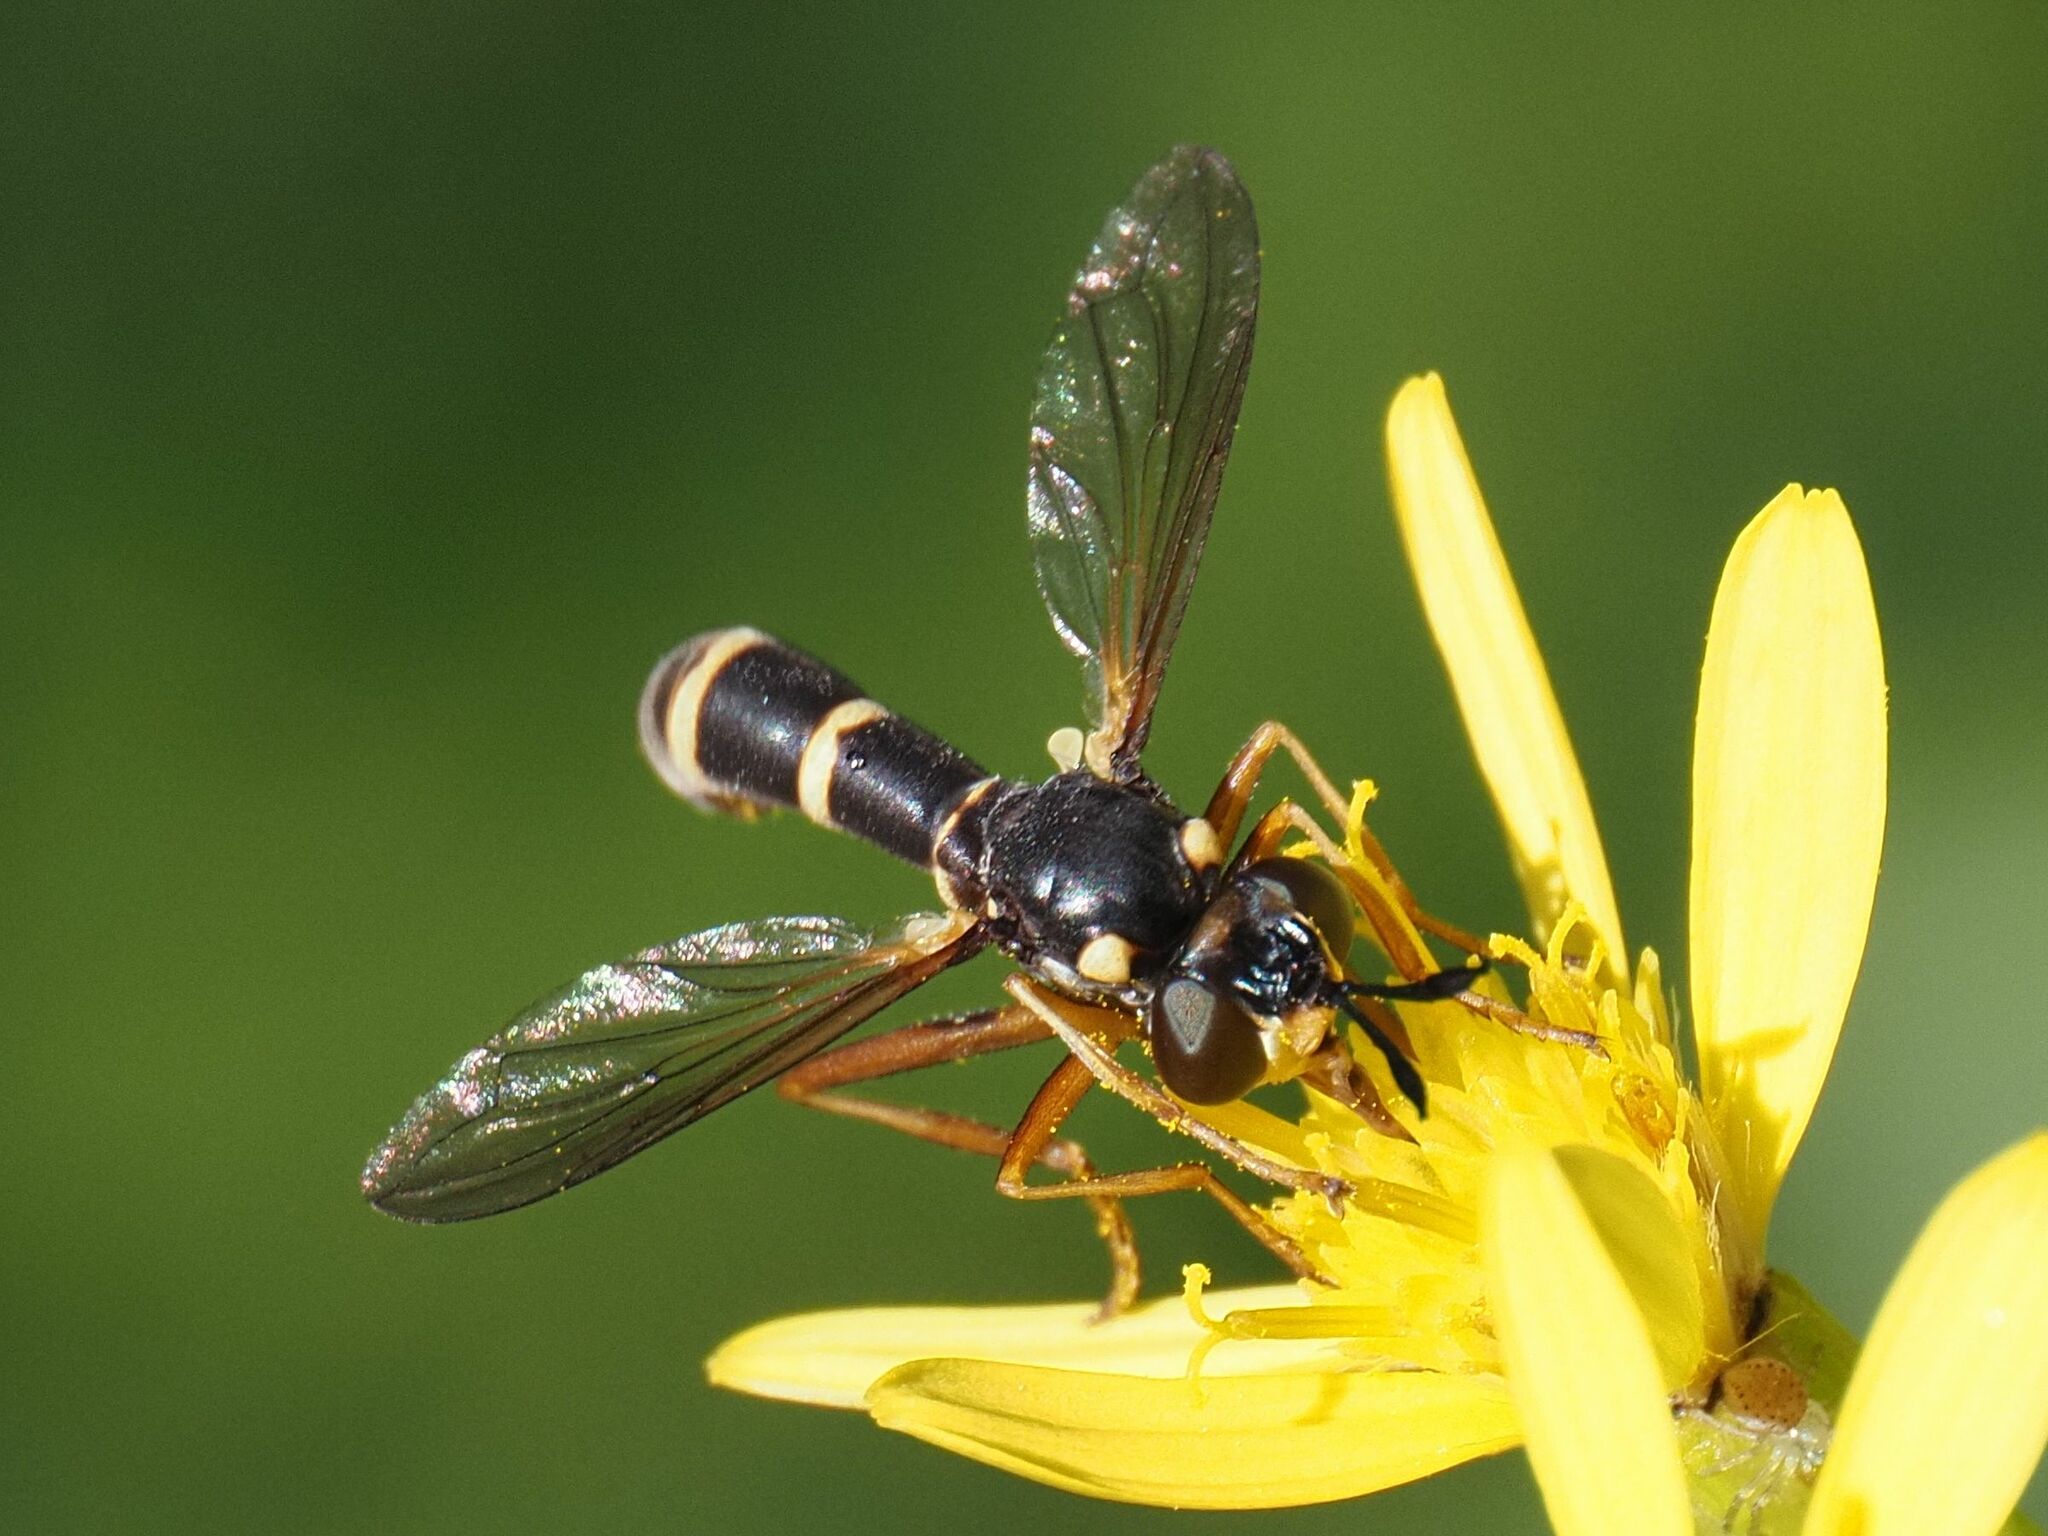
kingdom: Animalia
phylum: Arthropoda
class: Insecta
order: Diptera
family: Conopidae
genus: Conops
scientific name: Conops quadrifasciatus
